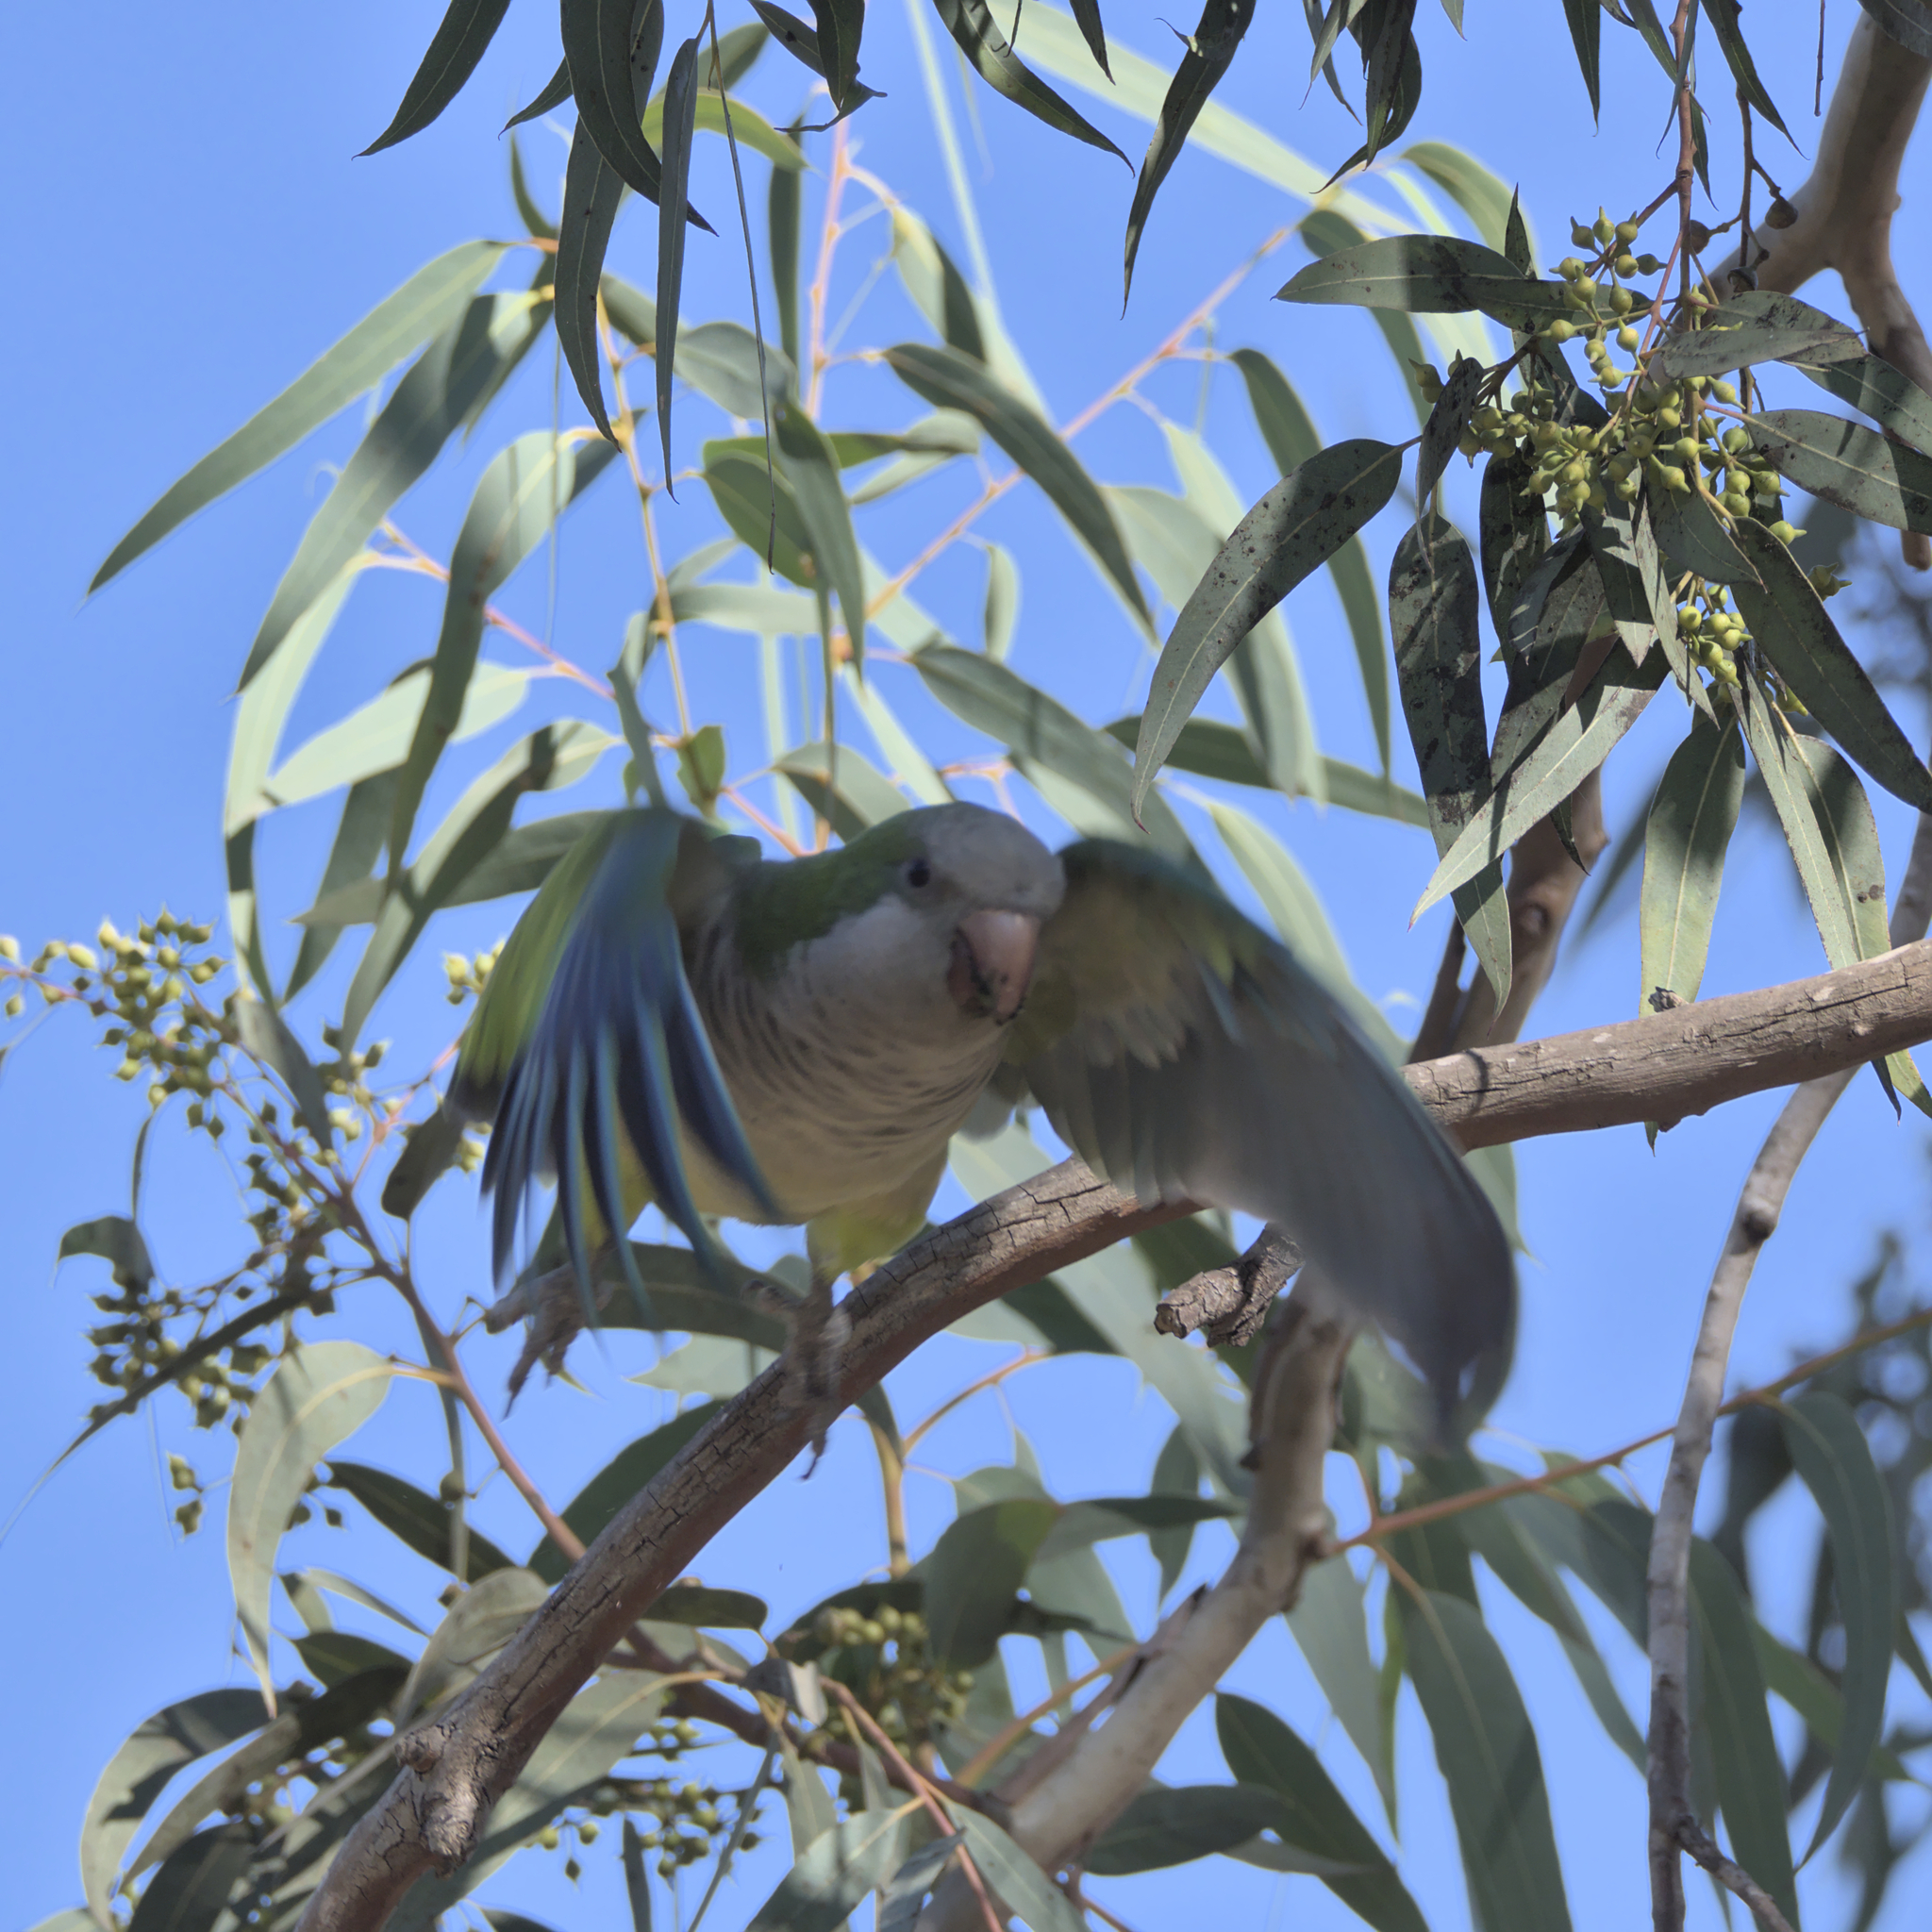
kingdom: Animalia
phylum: Chordata
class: Aves
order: Psittaciformes
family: Psittacidae
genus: Myiopsitta
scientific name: Myiopsitta monachus
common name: Monk parakeet
